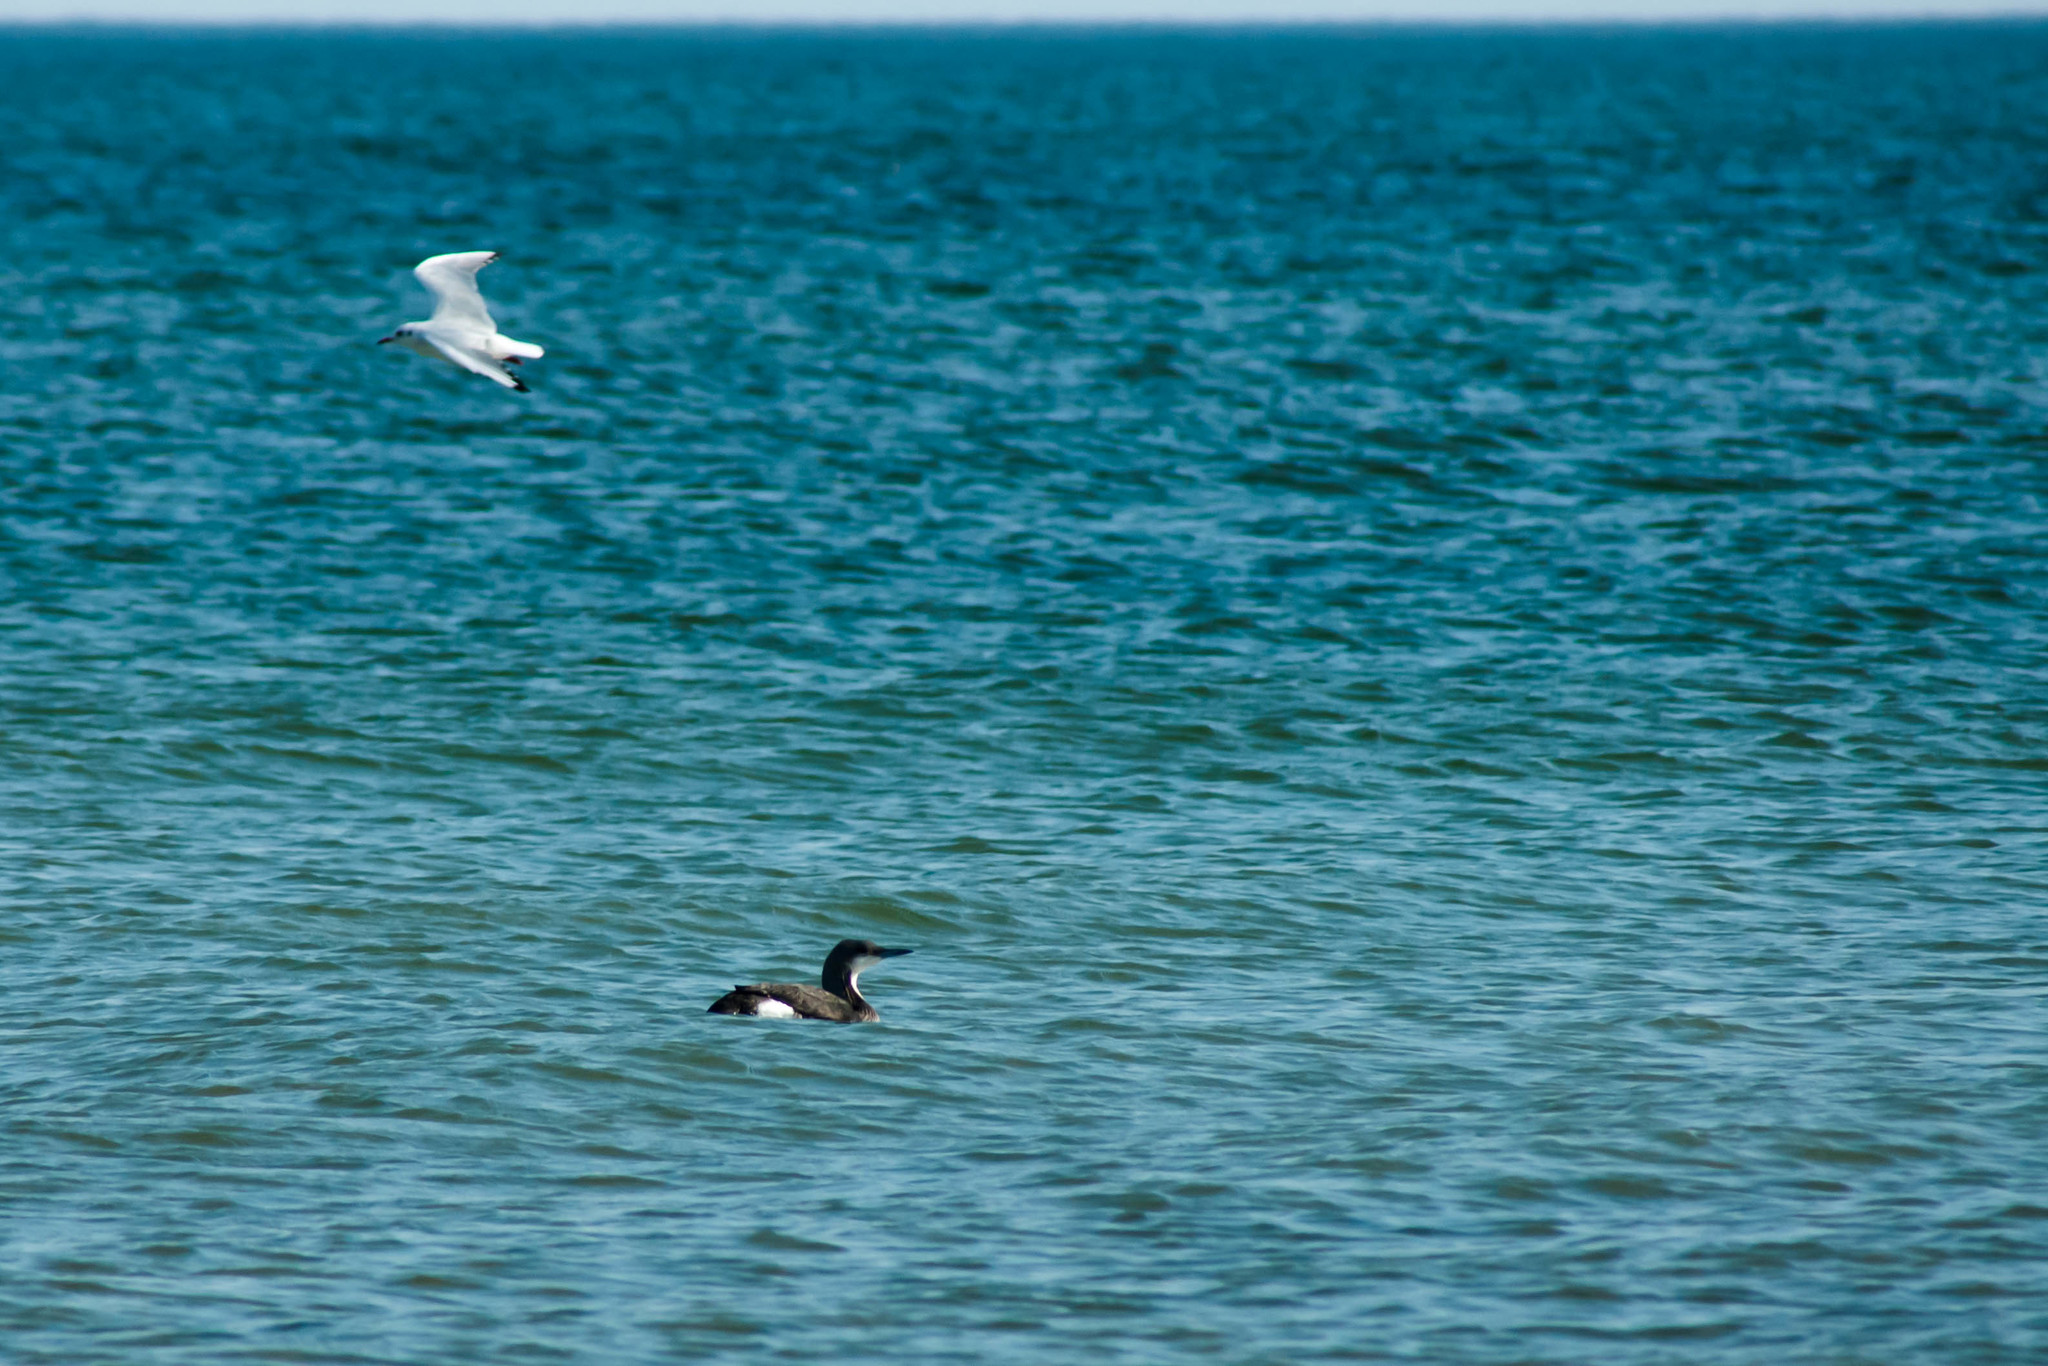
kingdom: Animalia
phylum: Chordata
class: Aves
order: Gaviiformes
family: Gaviidae
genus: Gavia
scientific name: Gavia arctica
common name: Black-throated loon
